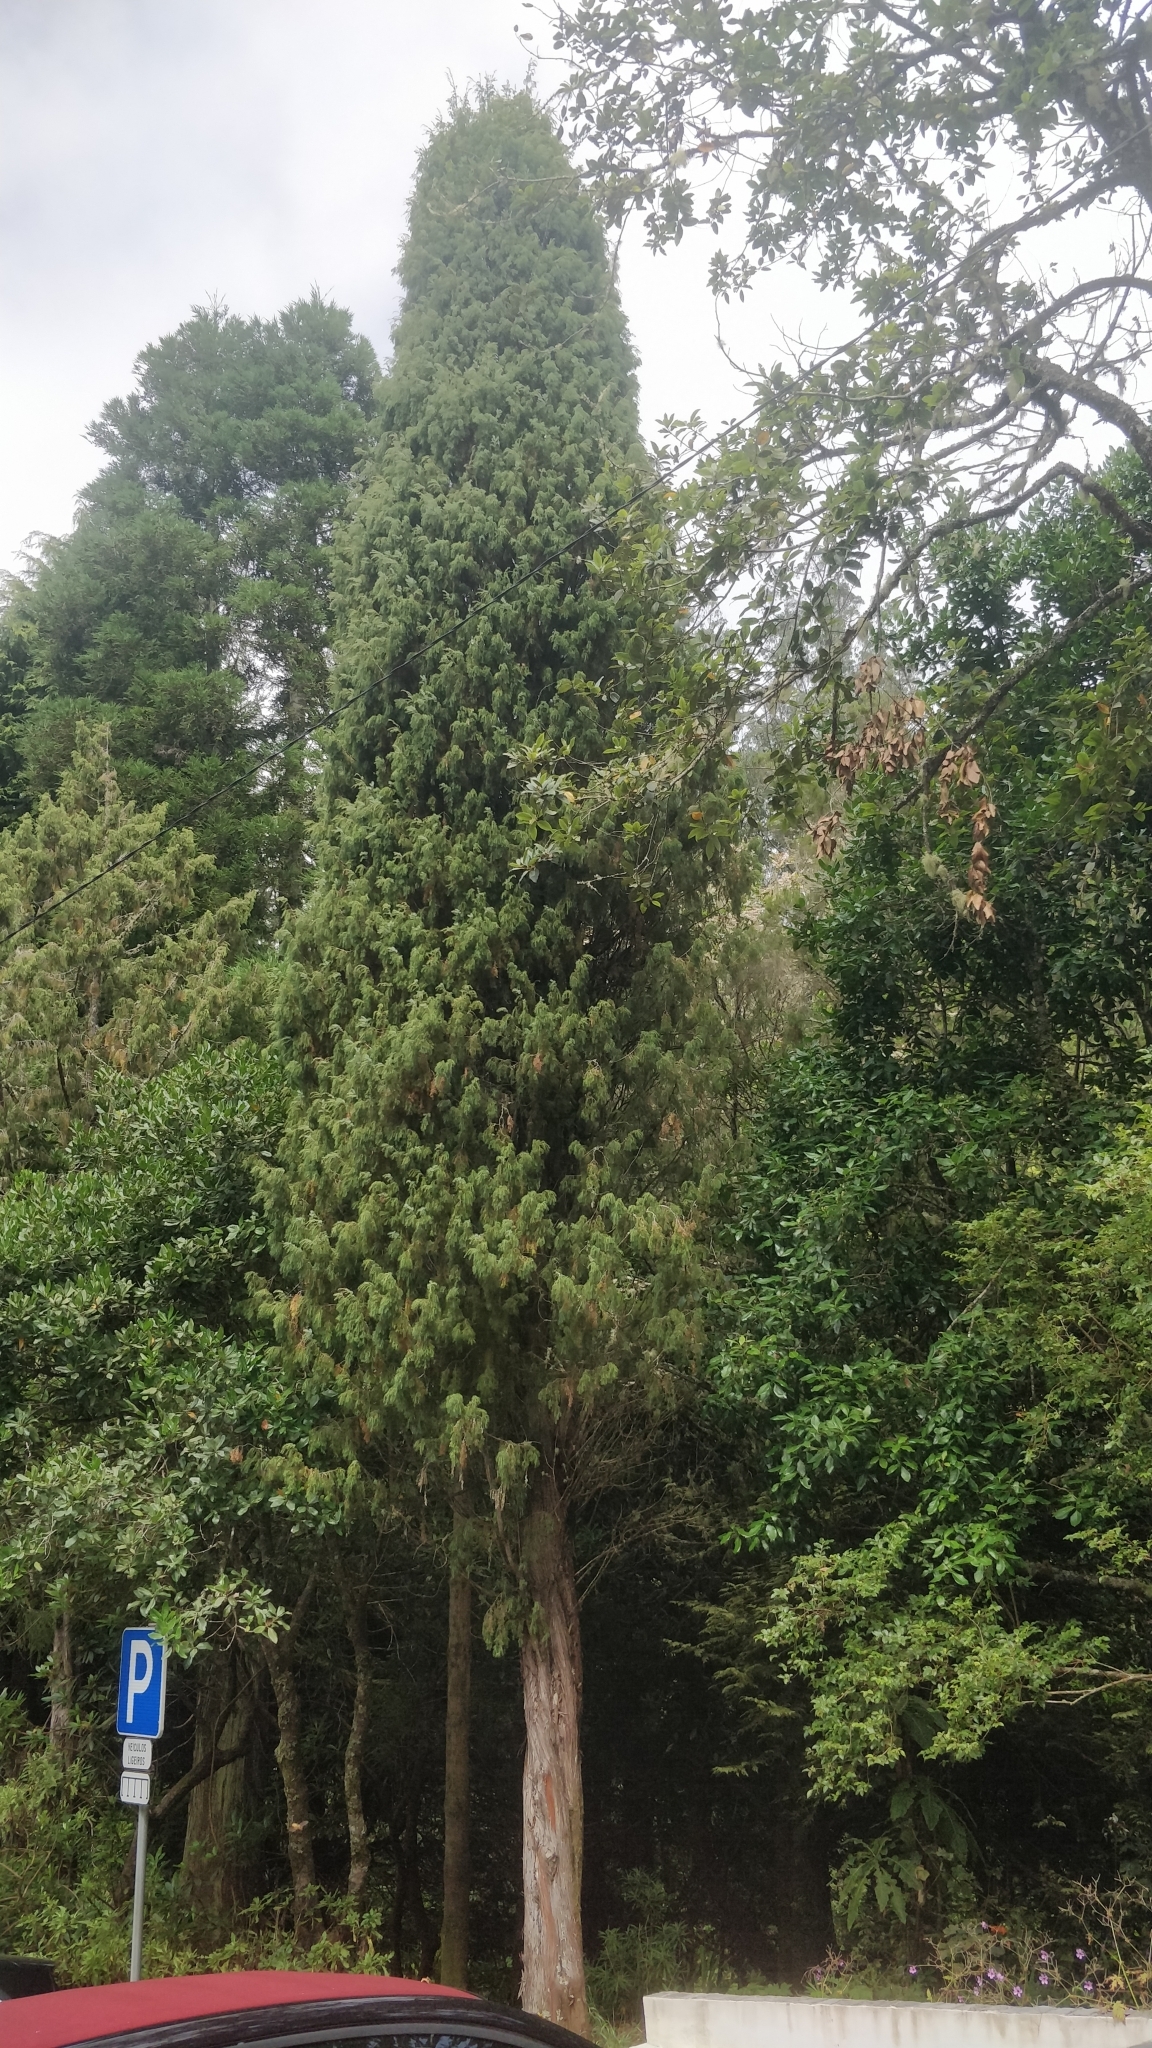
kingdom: Plantae
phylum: Tracheophyta
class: Pinopsida
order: Pinales
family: Cupressaceae
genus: Juniperus
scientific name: Juniperus cedrus
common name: Canary islands juniper
